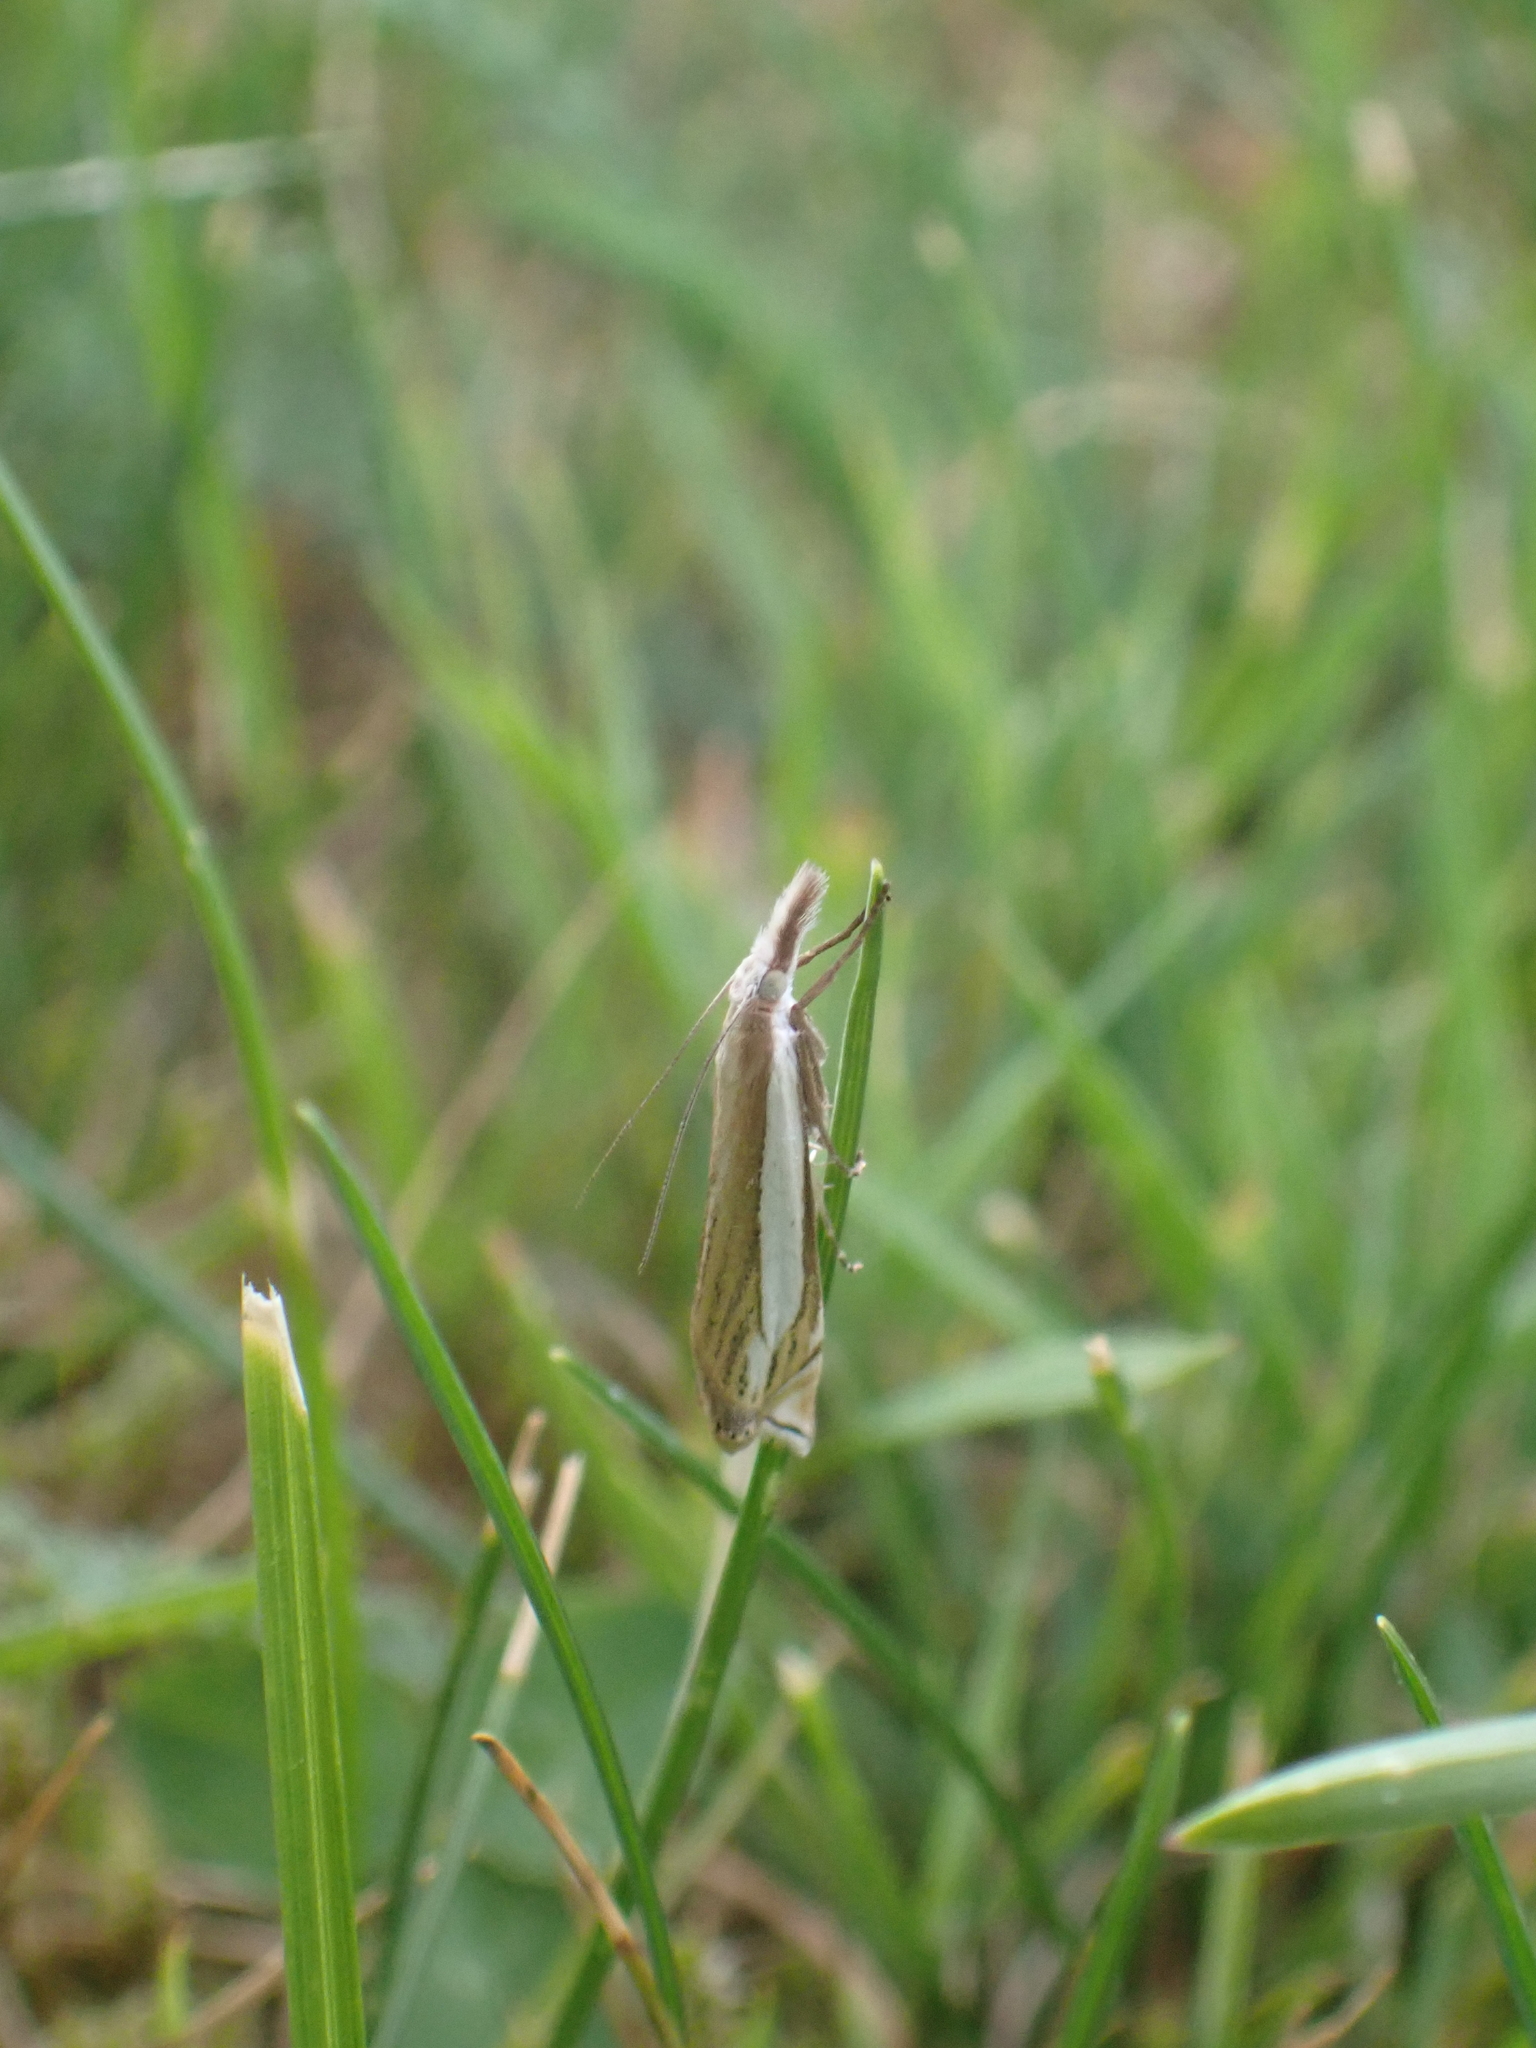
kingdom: Animalia
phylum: Arthropoda
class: Insecta
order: Lepidoptera
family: Crambidae
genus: Crambus
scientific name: Crambus pascuella
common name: Inlaid grass-veneer
